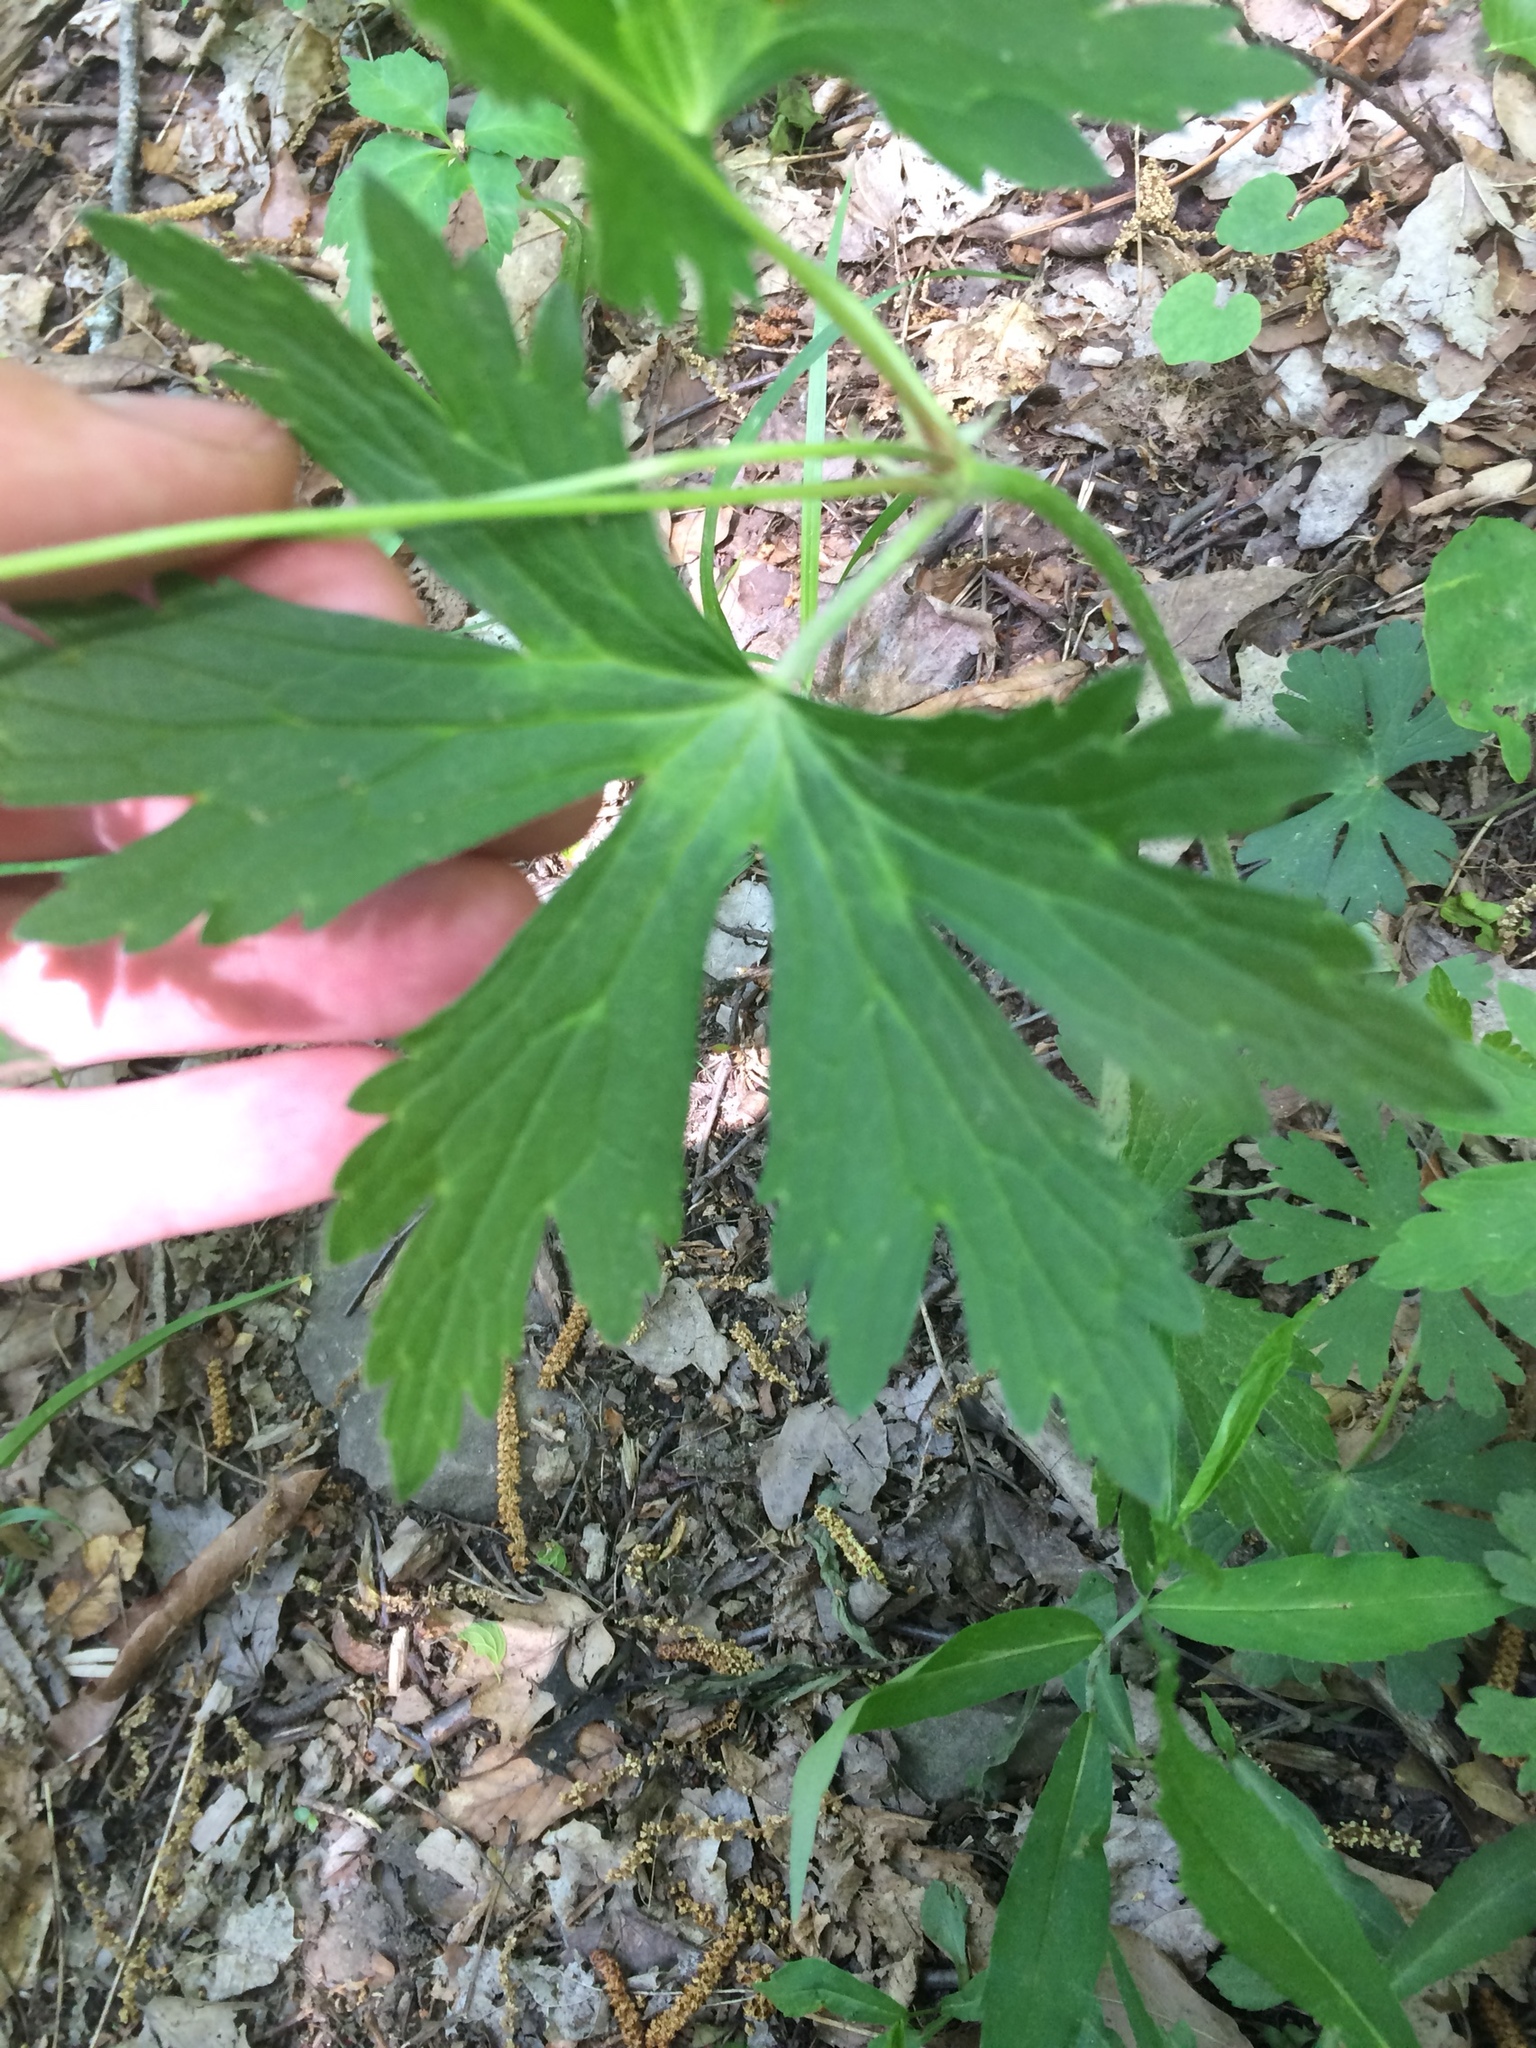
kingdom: Plantae
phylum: Tracheophyta
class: Magnoliopsida
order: Geraniales
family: Geraniaceae
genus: Geranium
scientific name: Geranium maculatum
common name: Spotted geranium
